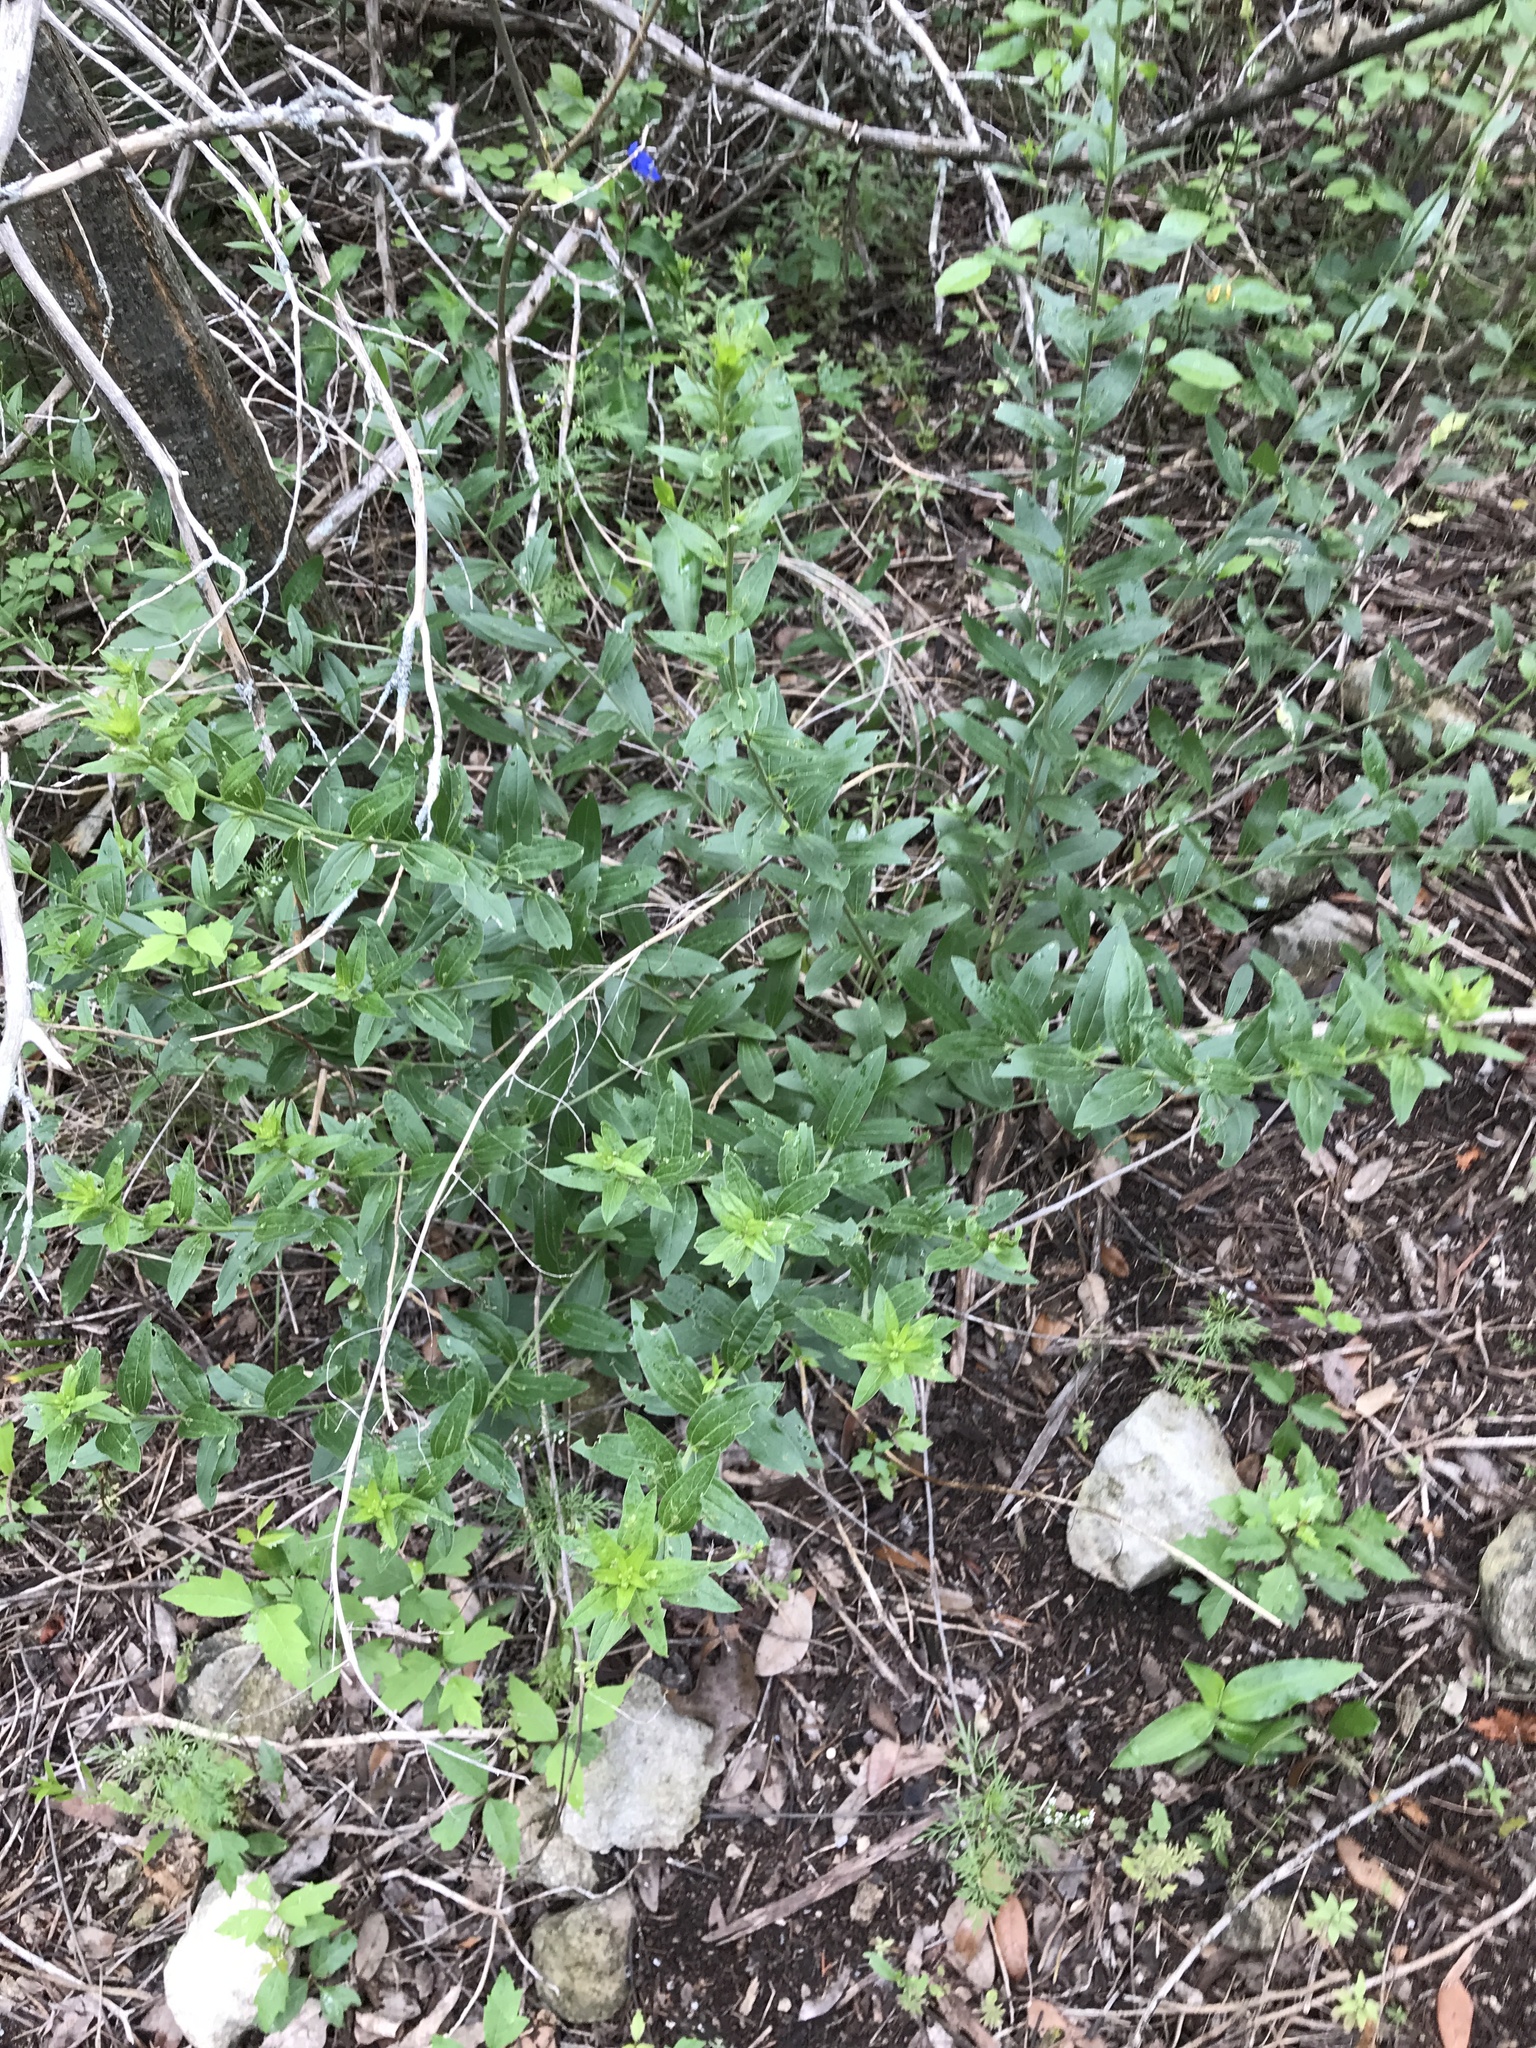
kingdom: Plantae
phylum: Tracheophyta
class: Magnoliopsida
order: Malpighiales
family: Euphorbiaceae
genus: Ditaxis
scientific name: Ditaxis mercurialina
